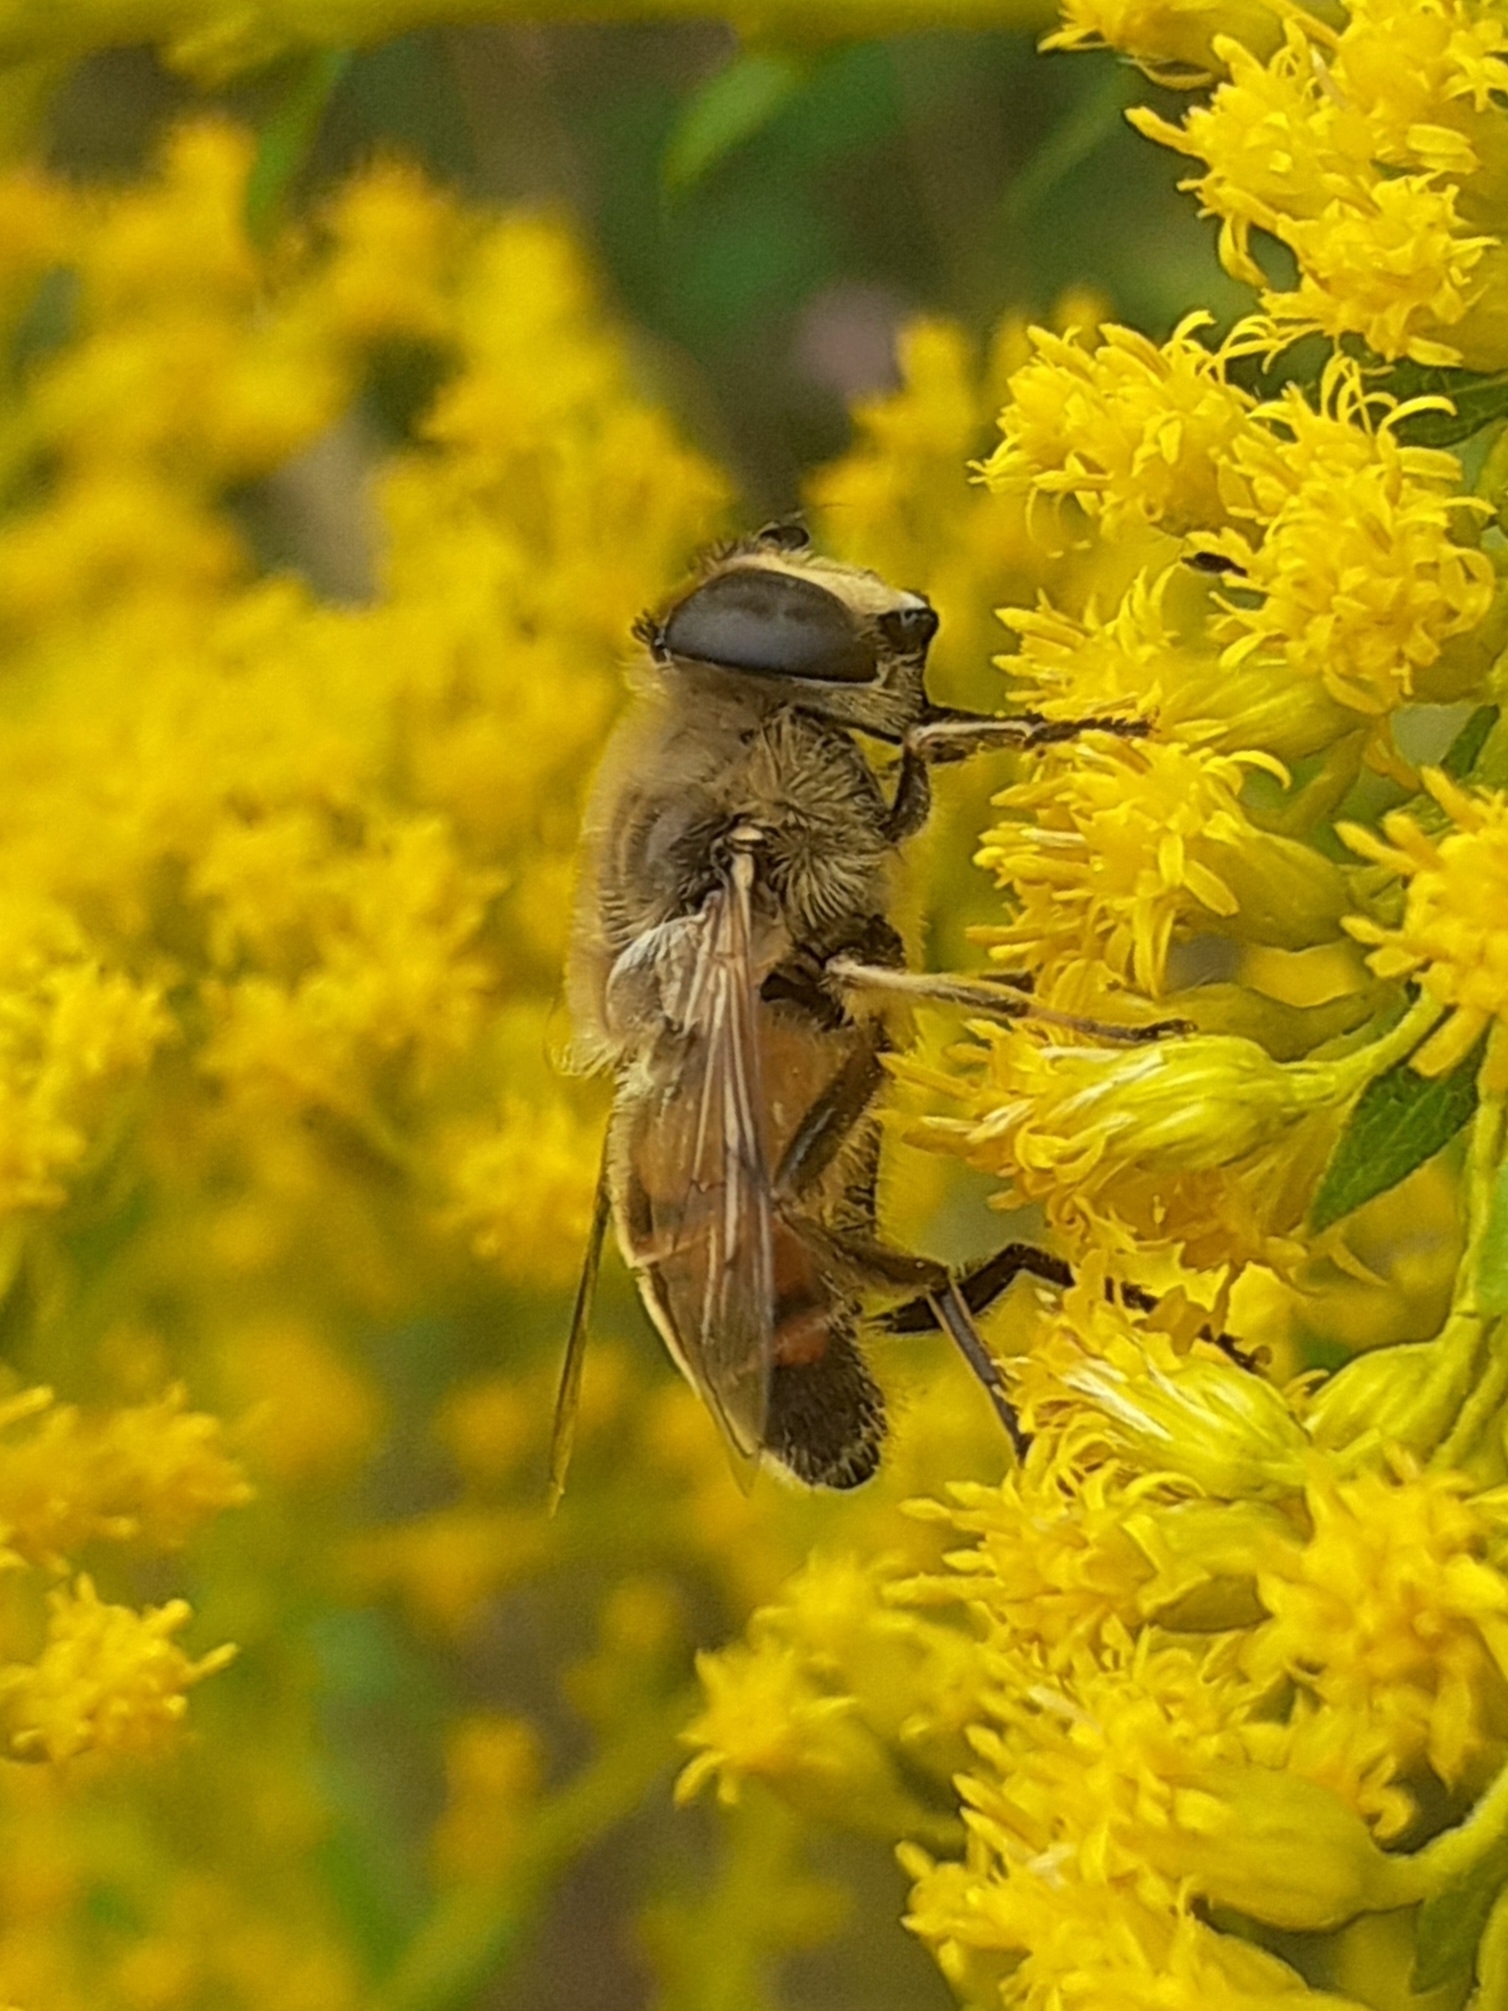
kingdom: Animalia
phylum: Arthropoda
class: Insecta
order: Diptera
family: Syrphidae
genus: Eristalis
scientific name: Eristalis tenax
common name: Drone fly
